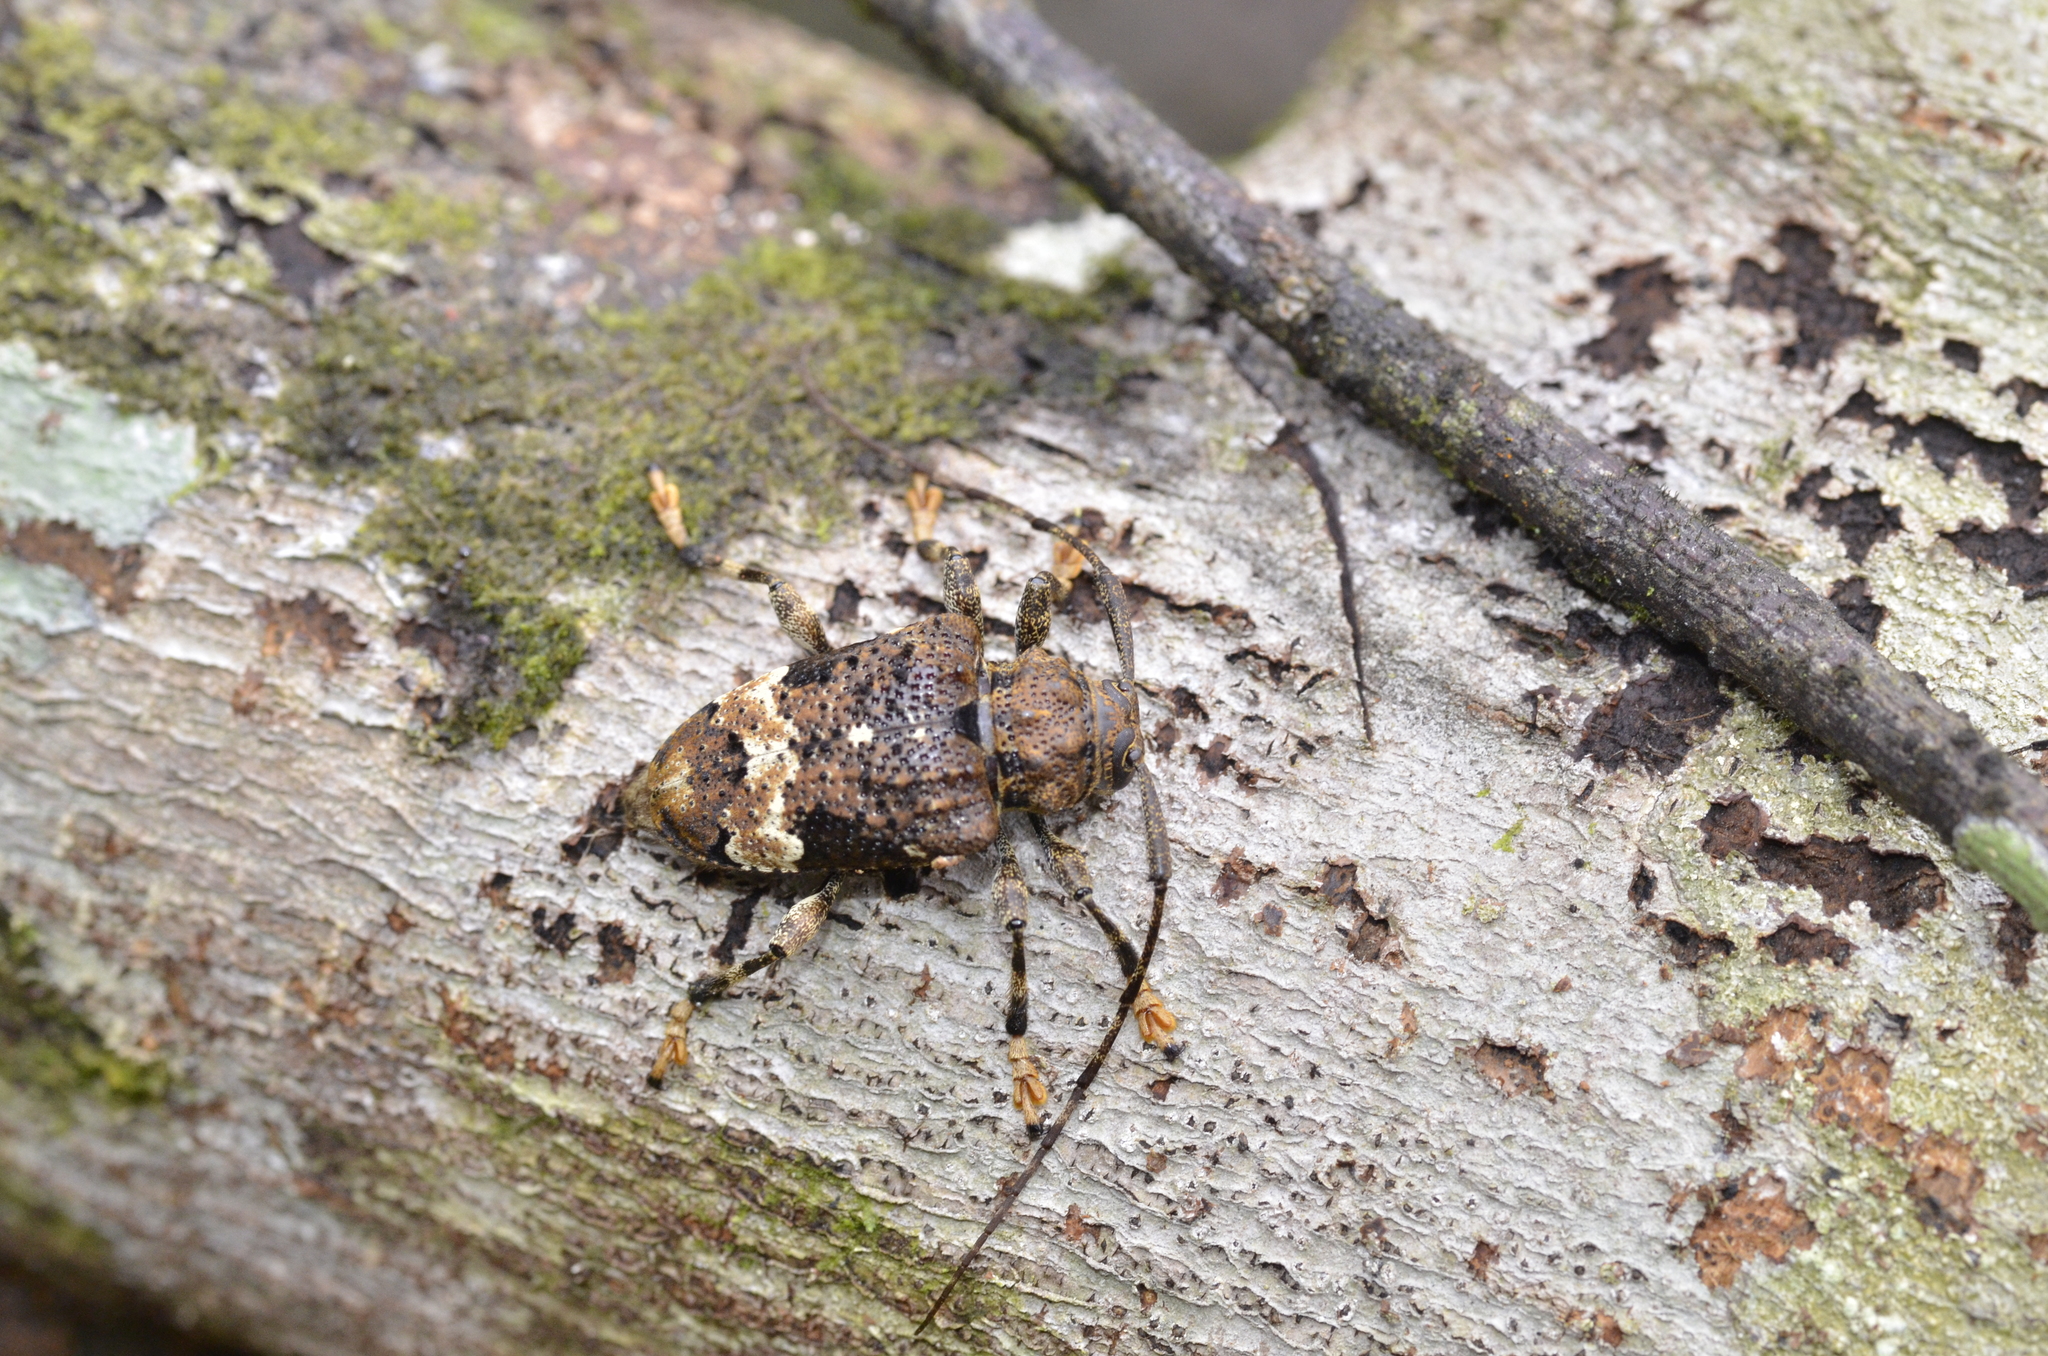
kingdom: Animalia
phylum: Arthropoda
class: Insecta
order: Coleoptera
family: Cerambycidae
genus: Lagocheirus
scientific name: Lagocheirus plantaris
